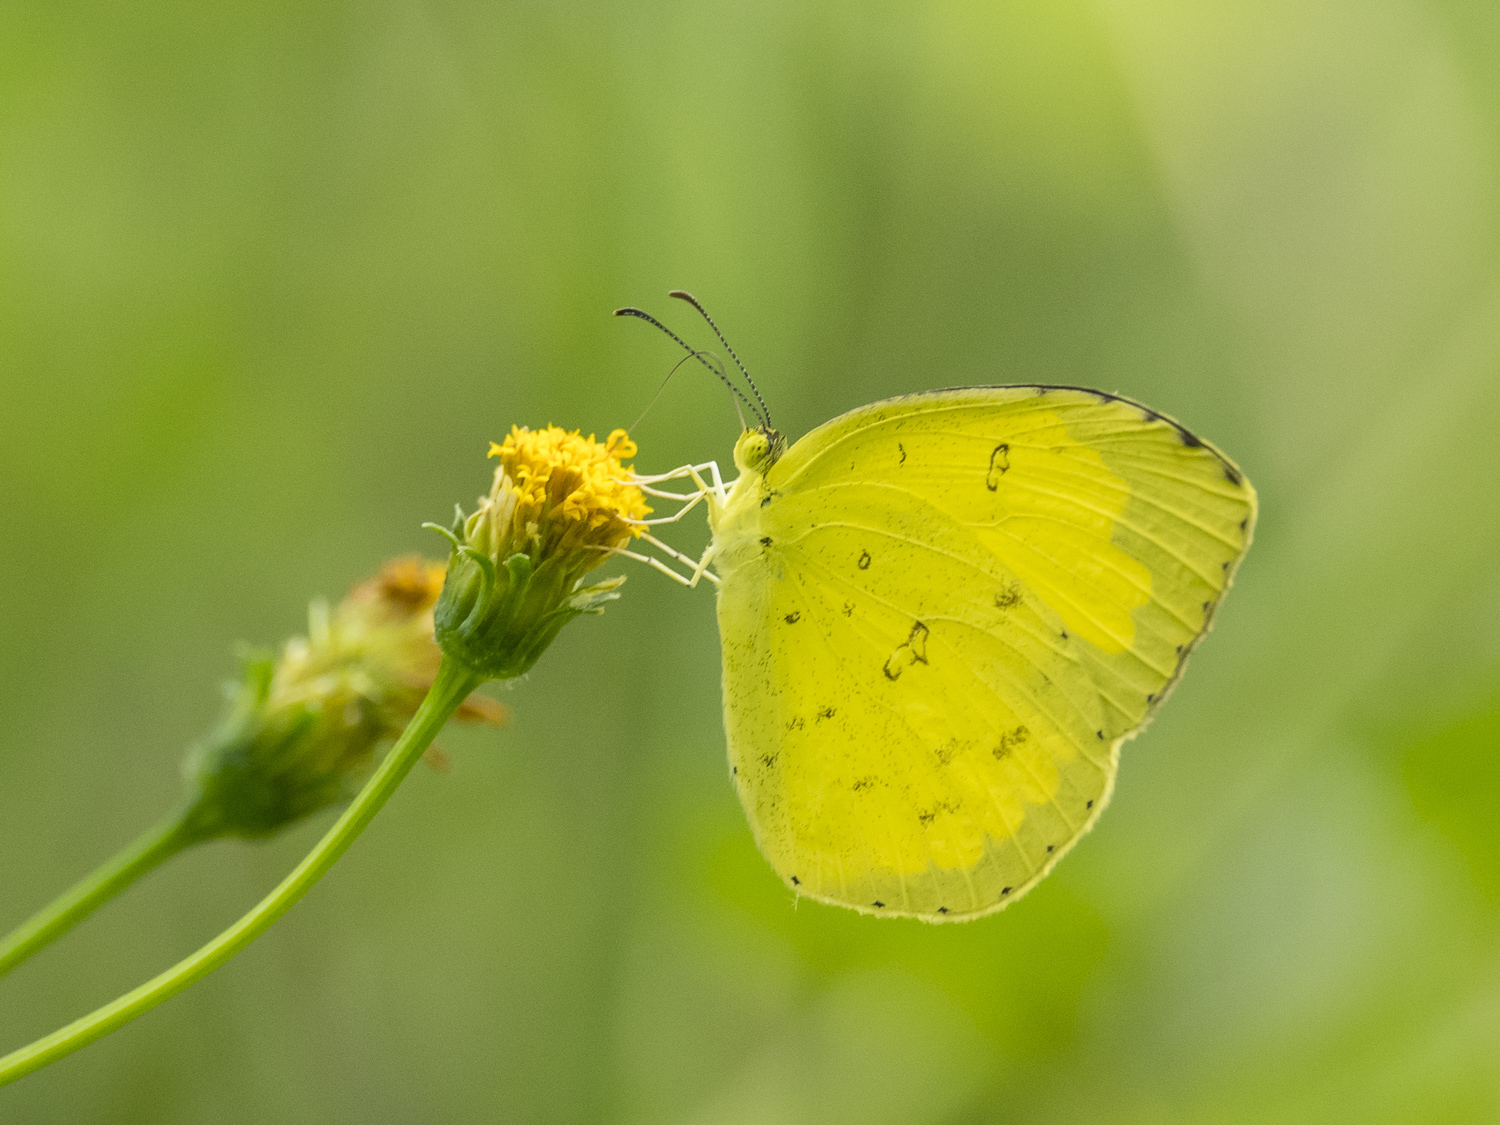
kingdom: Animalia
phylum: Arthropoda
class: Insecta
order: Lepidoptera
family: Pieridae
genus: Eurema
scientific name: Eurema hecabe
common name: Pale grass yellow
